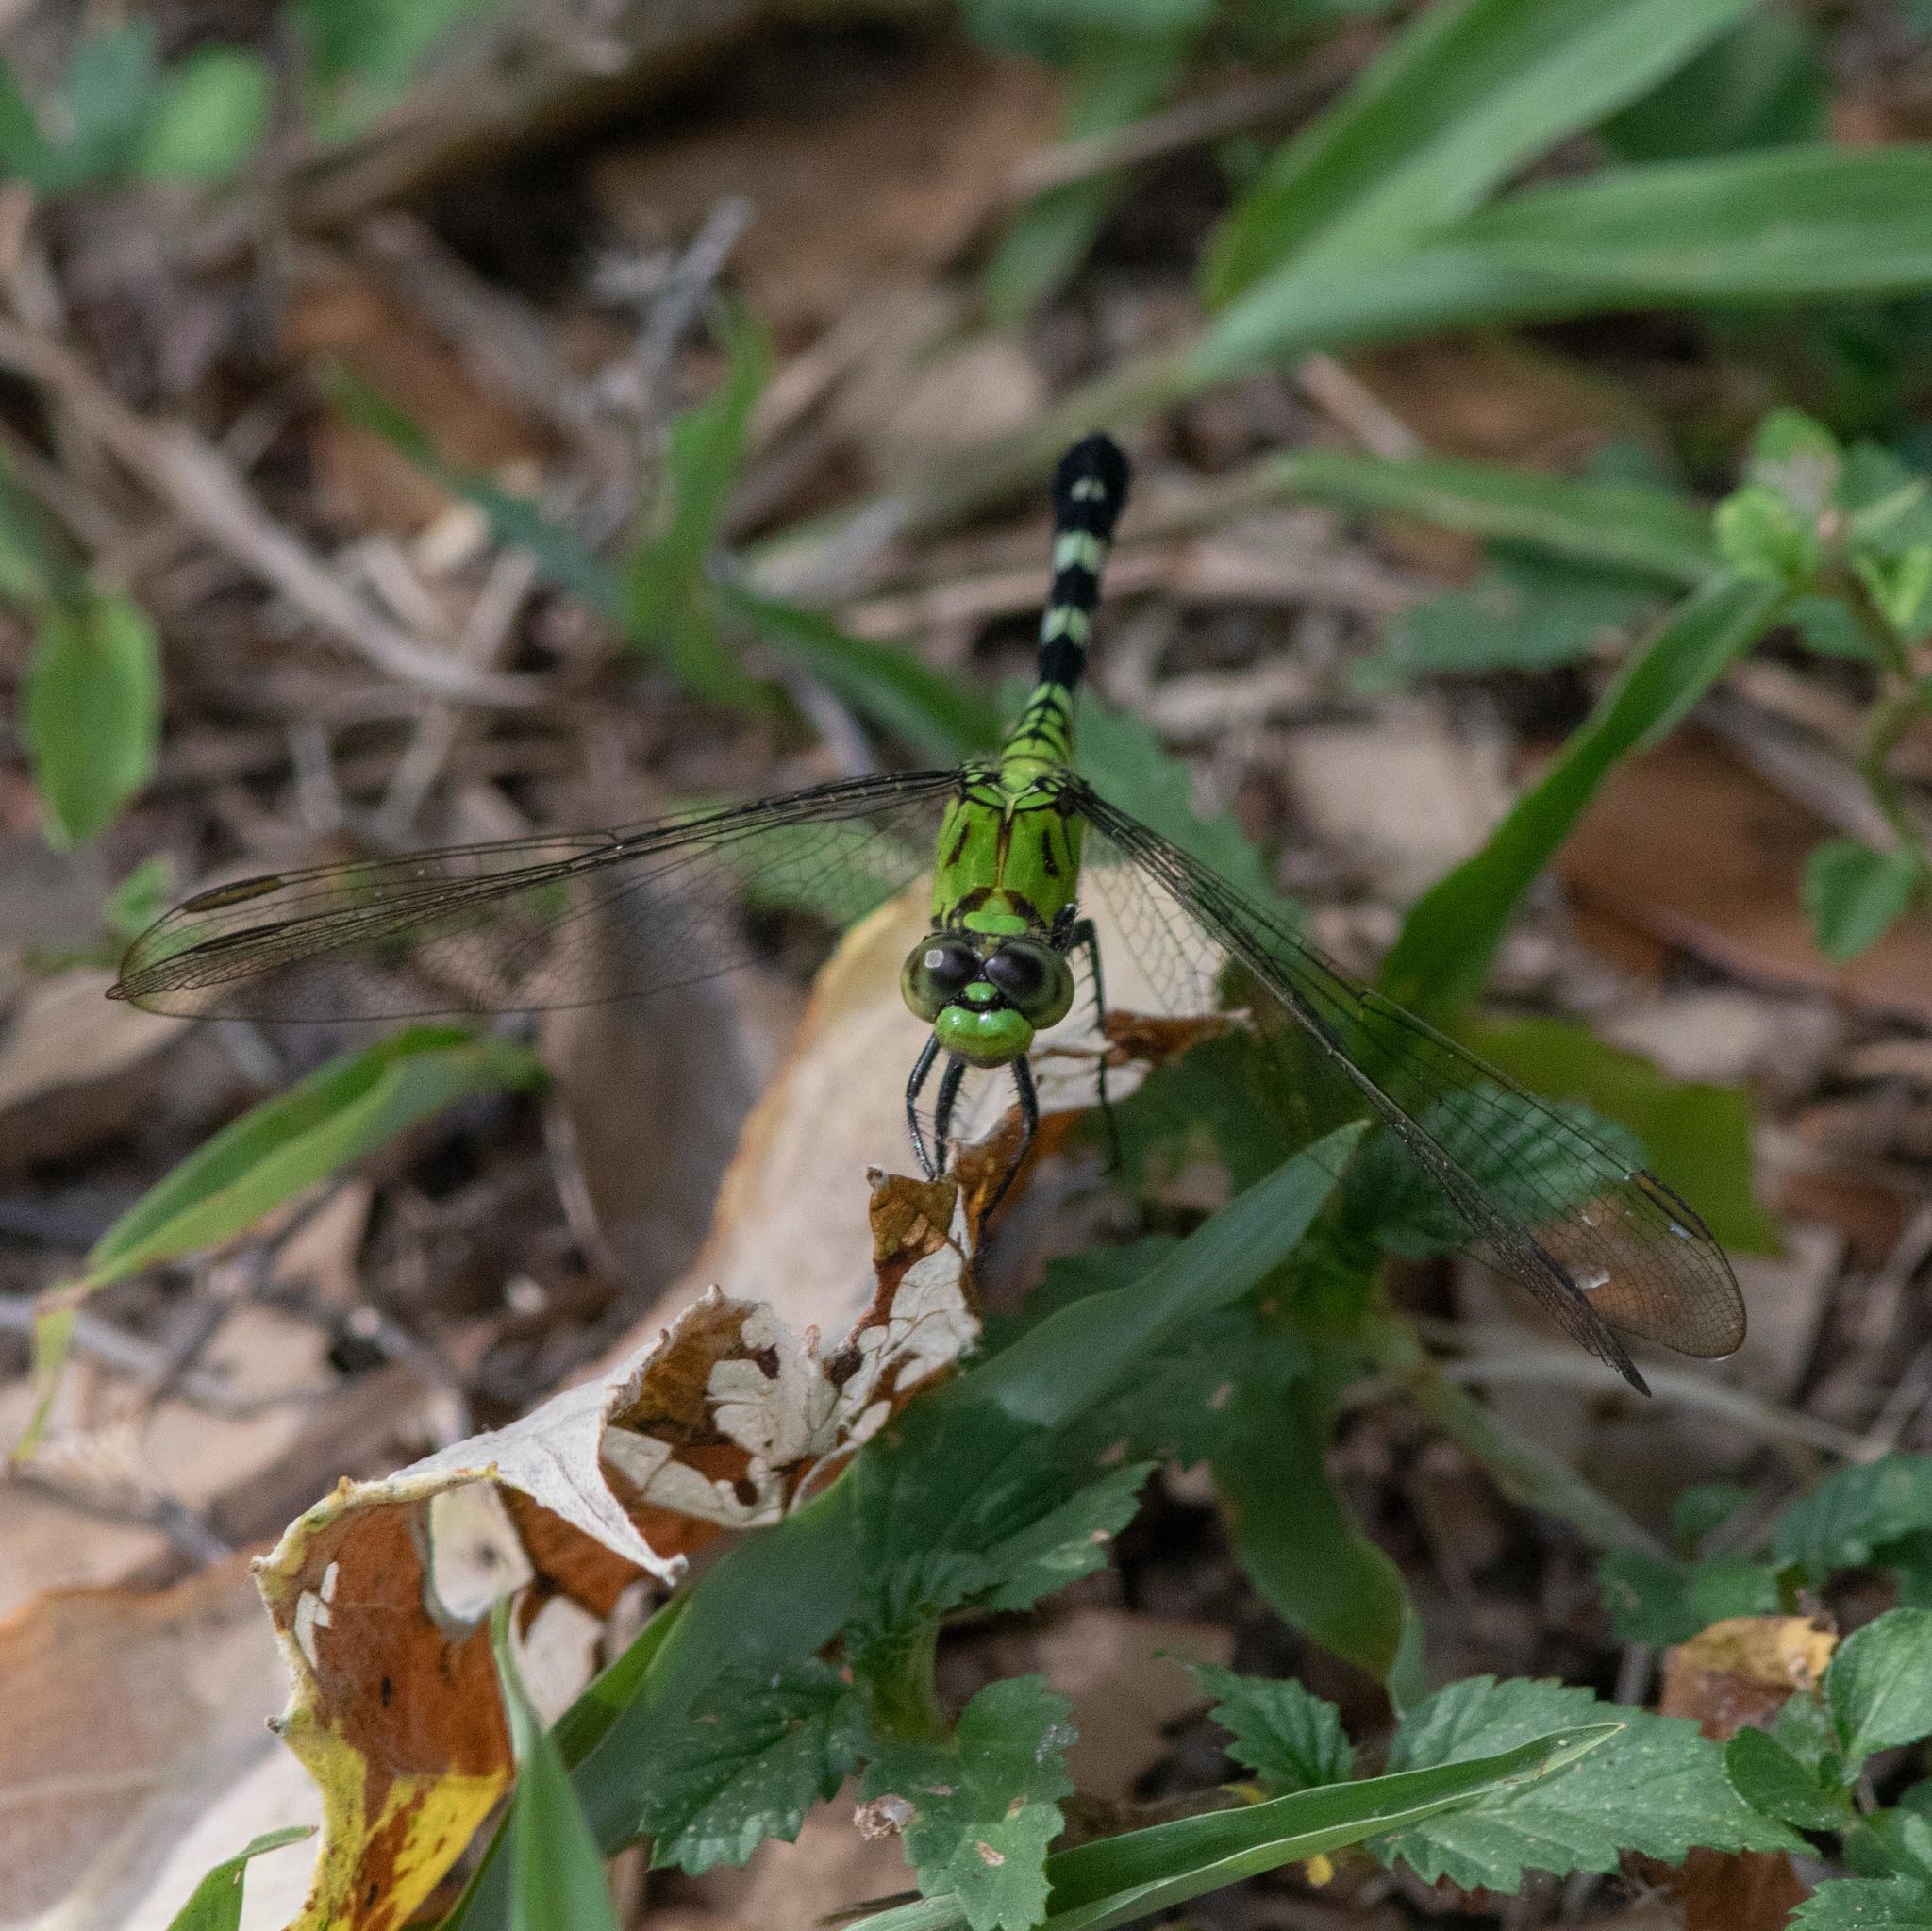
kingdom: Animalia
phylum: Arthropoda
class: Insecta
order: Odonata
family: Libellulidae
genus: Erythemis
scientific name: Erythemis simplicicollis
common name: Eastern pondhawk
